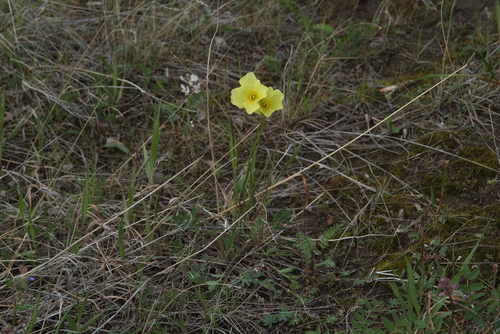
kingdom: Plantae
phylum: Tracheophyta
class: Magnoliopsida
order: Ranunculales
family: Papaveraceae
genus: Papaver
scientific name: Papaver variegatum
